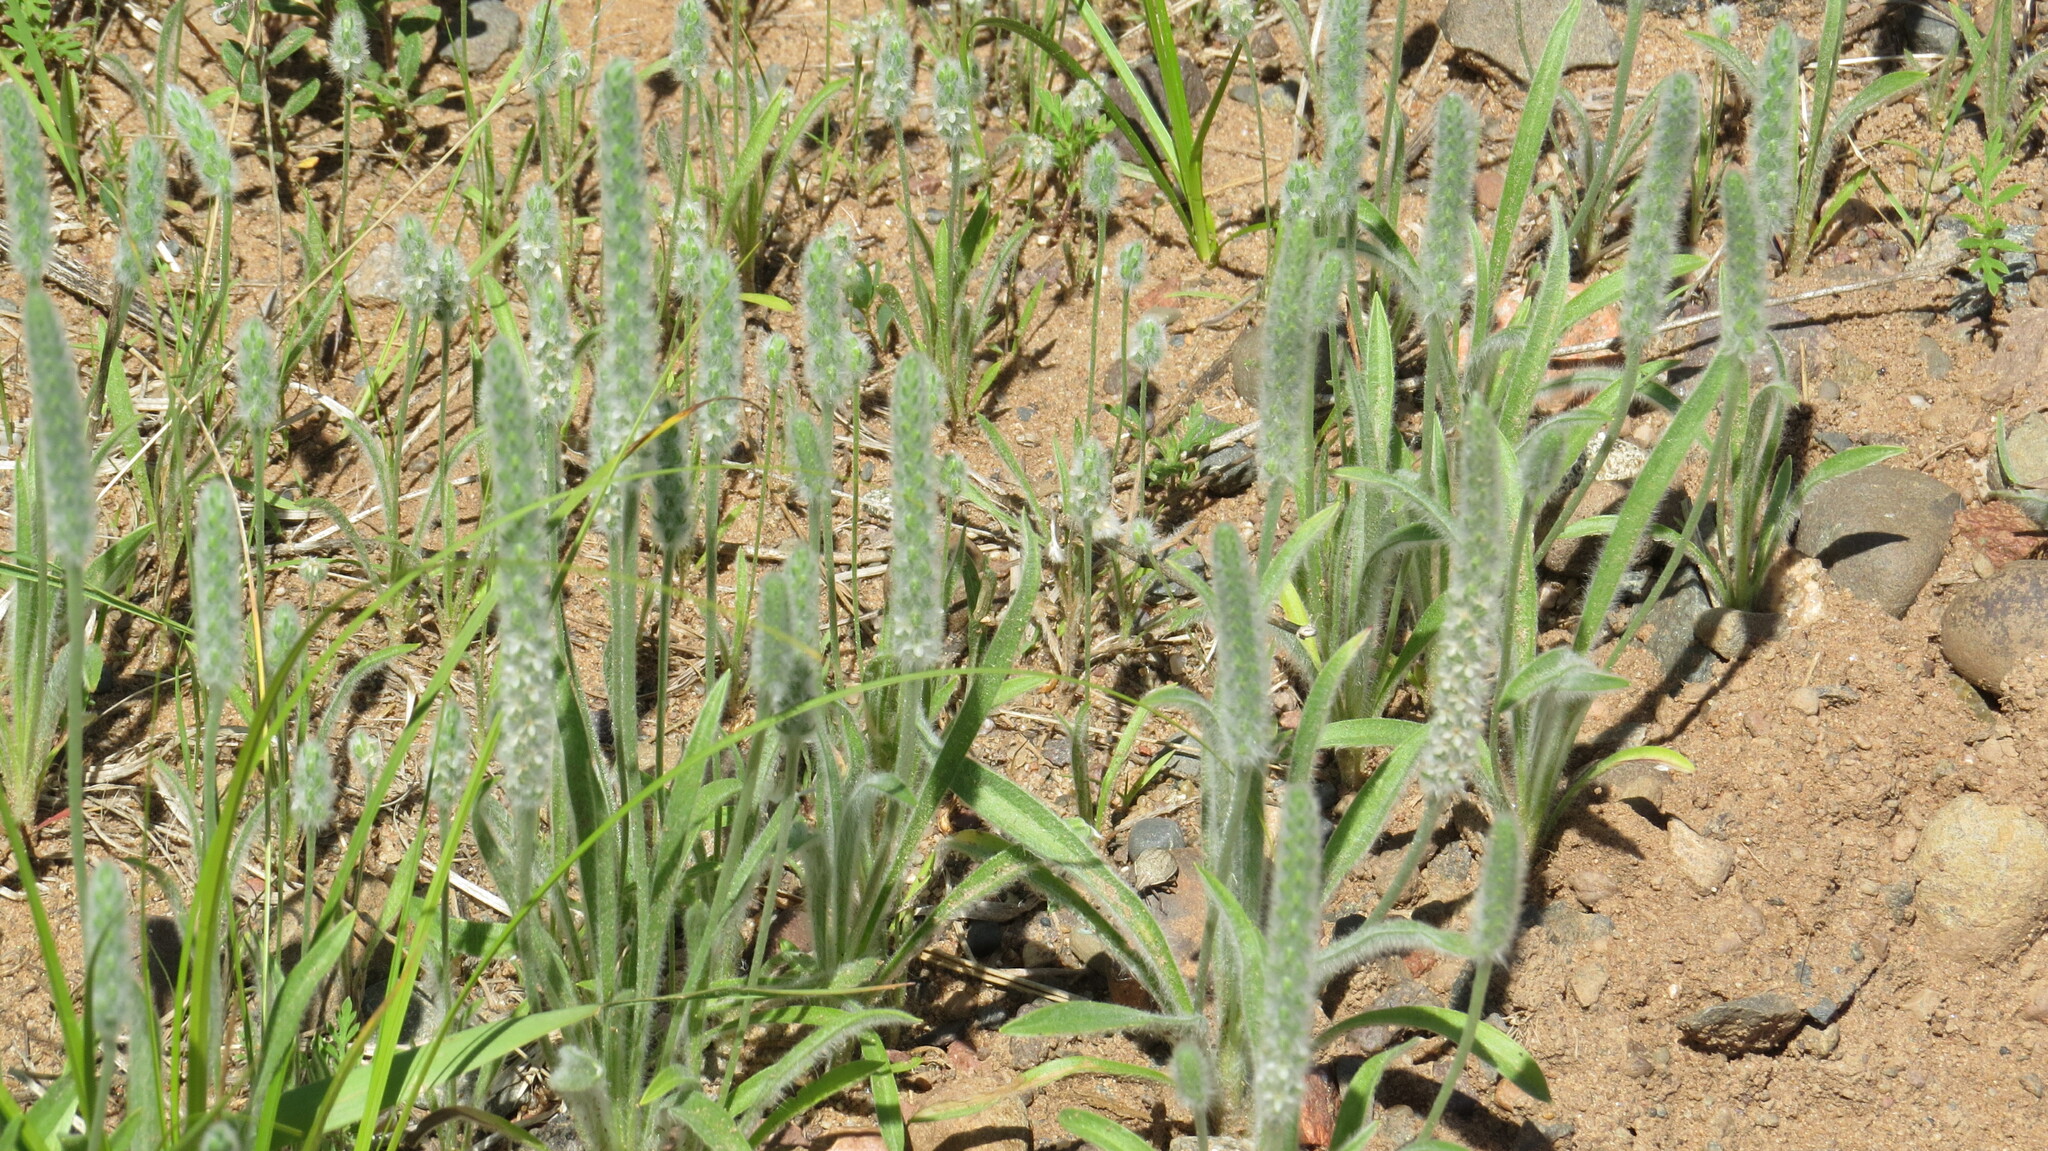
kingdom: Plantae
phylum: Tracheophyta
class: Magnoliopsida
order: Lamiales
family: Plantaginaceae
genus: Plantago
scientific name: Plantago patagonica
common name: Patagonia indian-wheat
